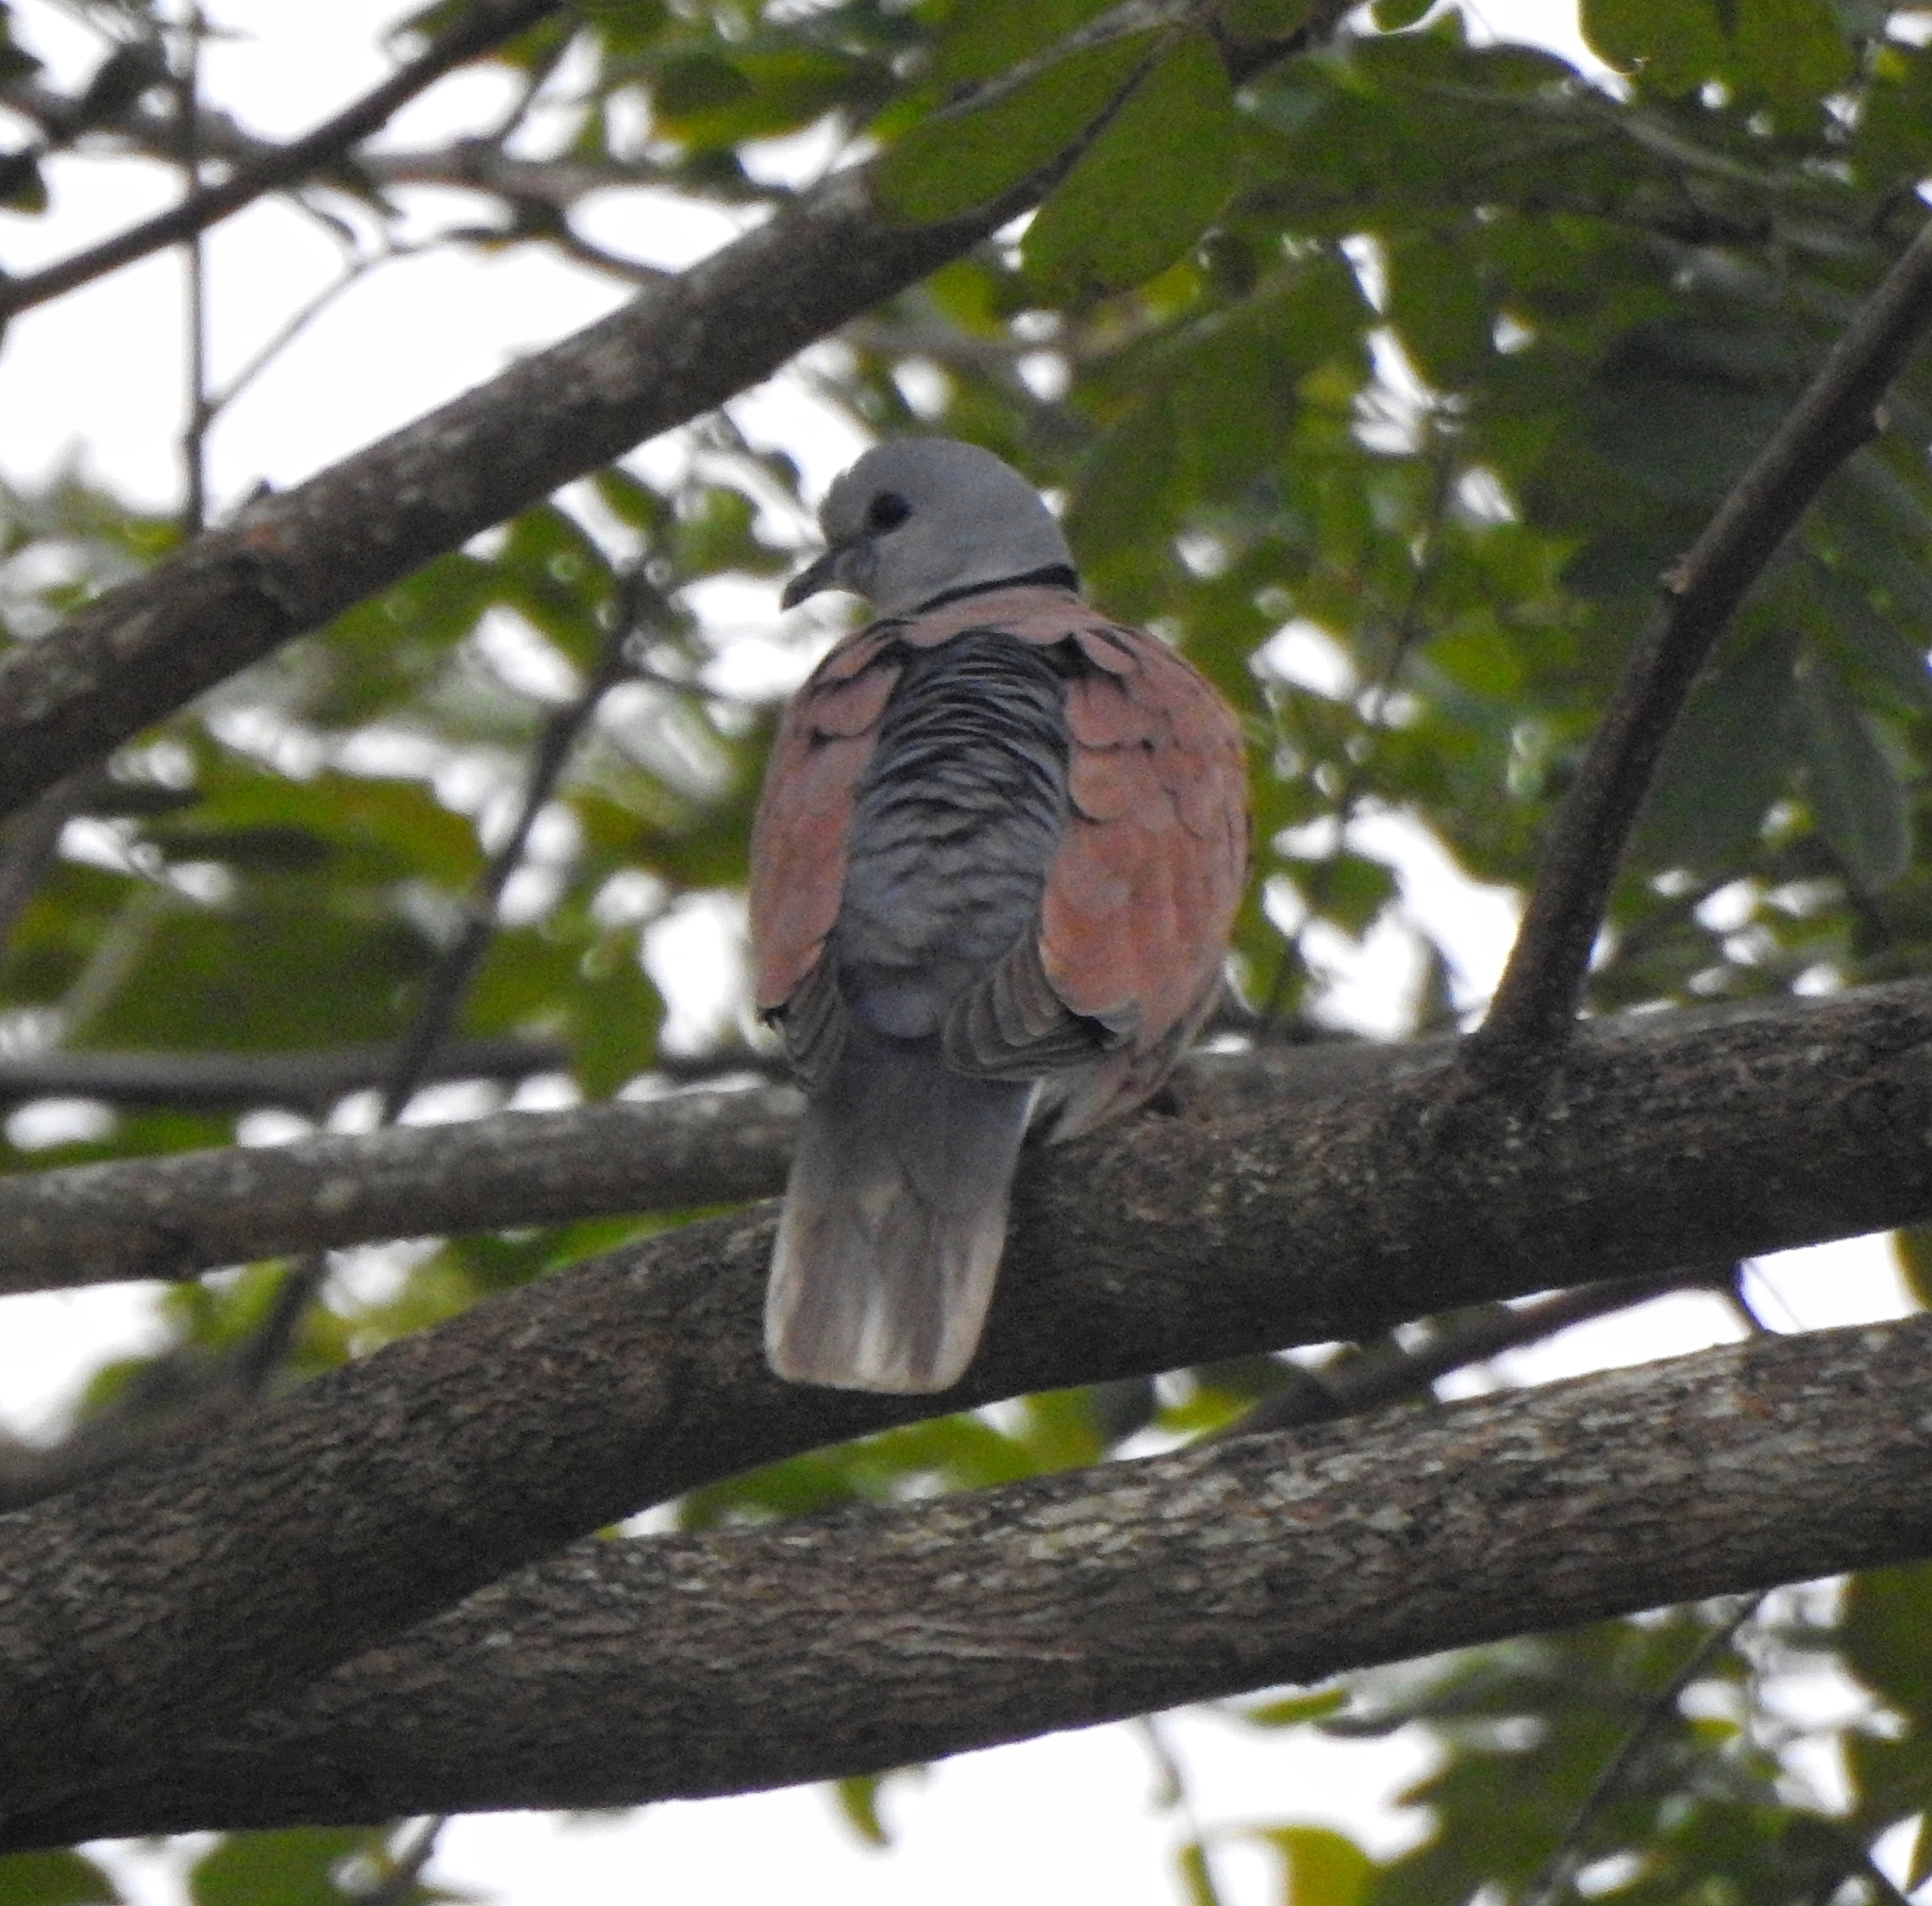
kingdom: Animalia
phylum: Chordata
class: Aves
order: Columbiformes
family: Columbidae
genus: Streptopelia
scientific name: Streptopelia tranquebarica
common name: Red turtle dove
